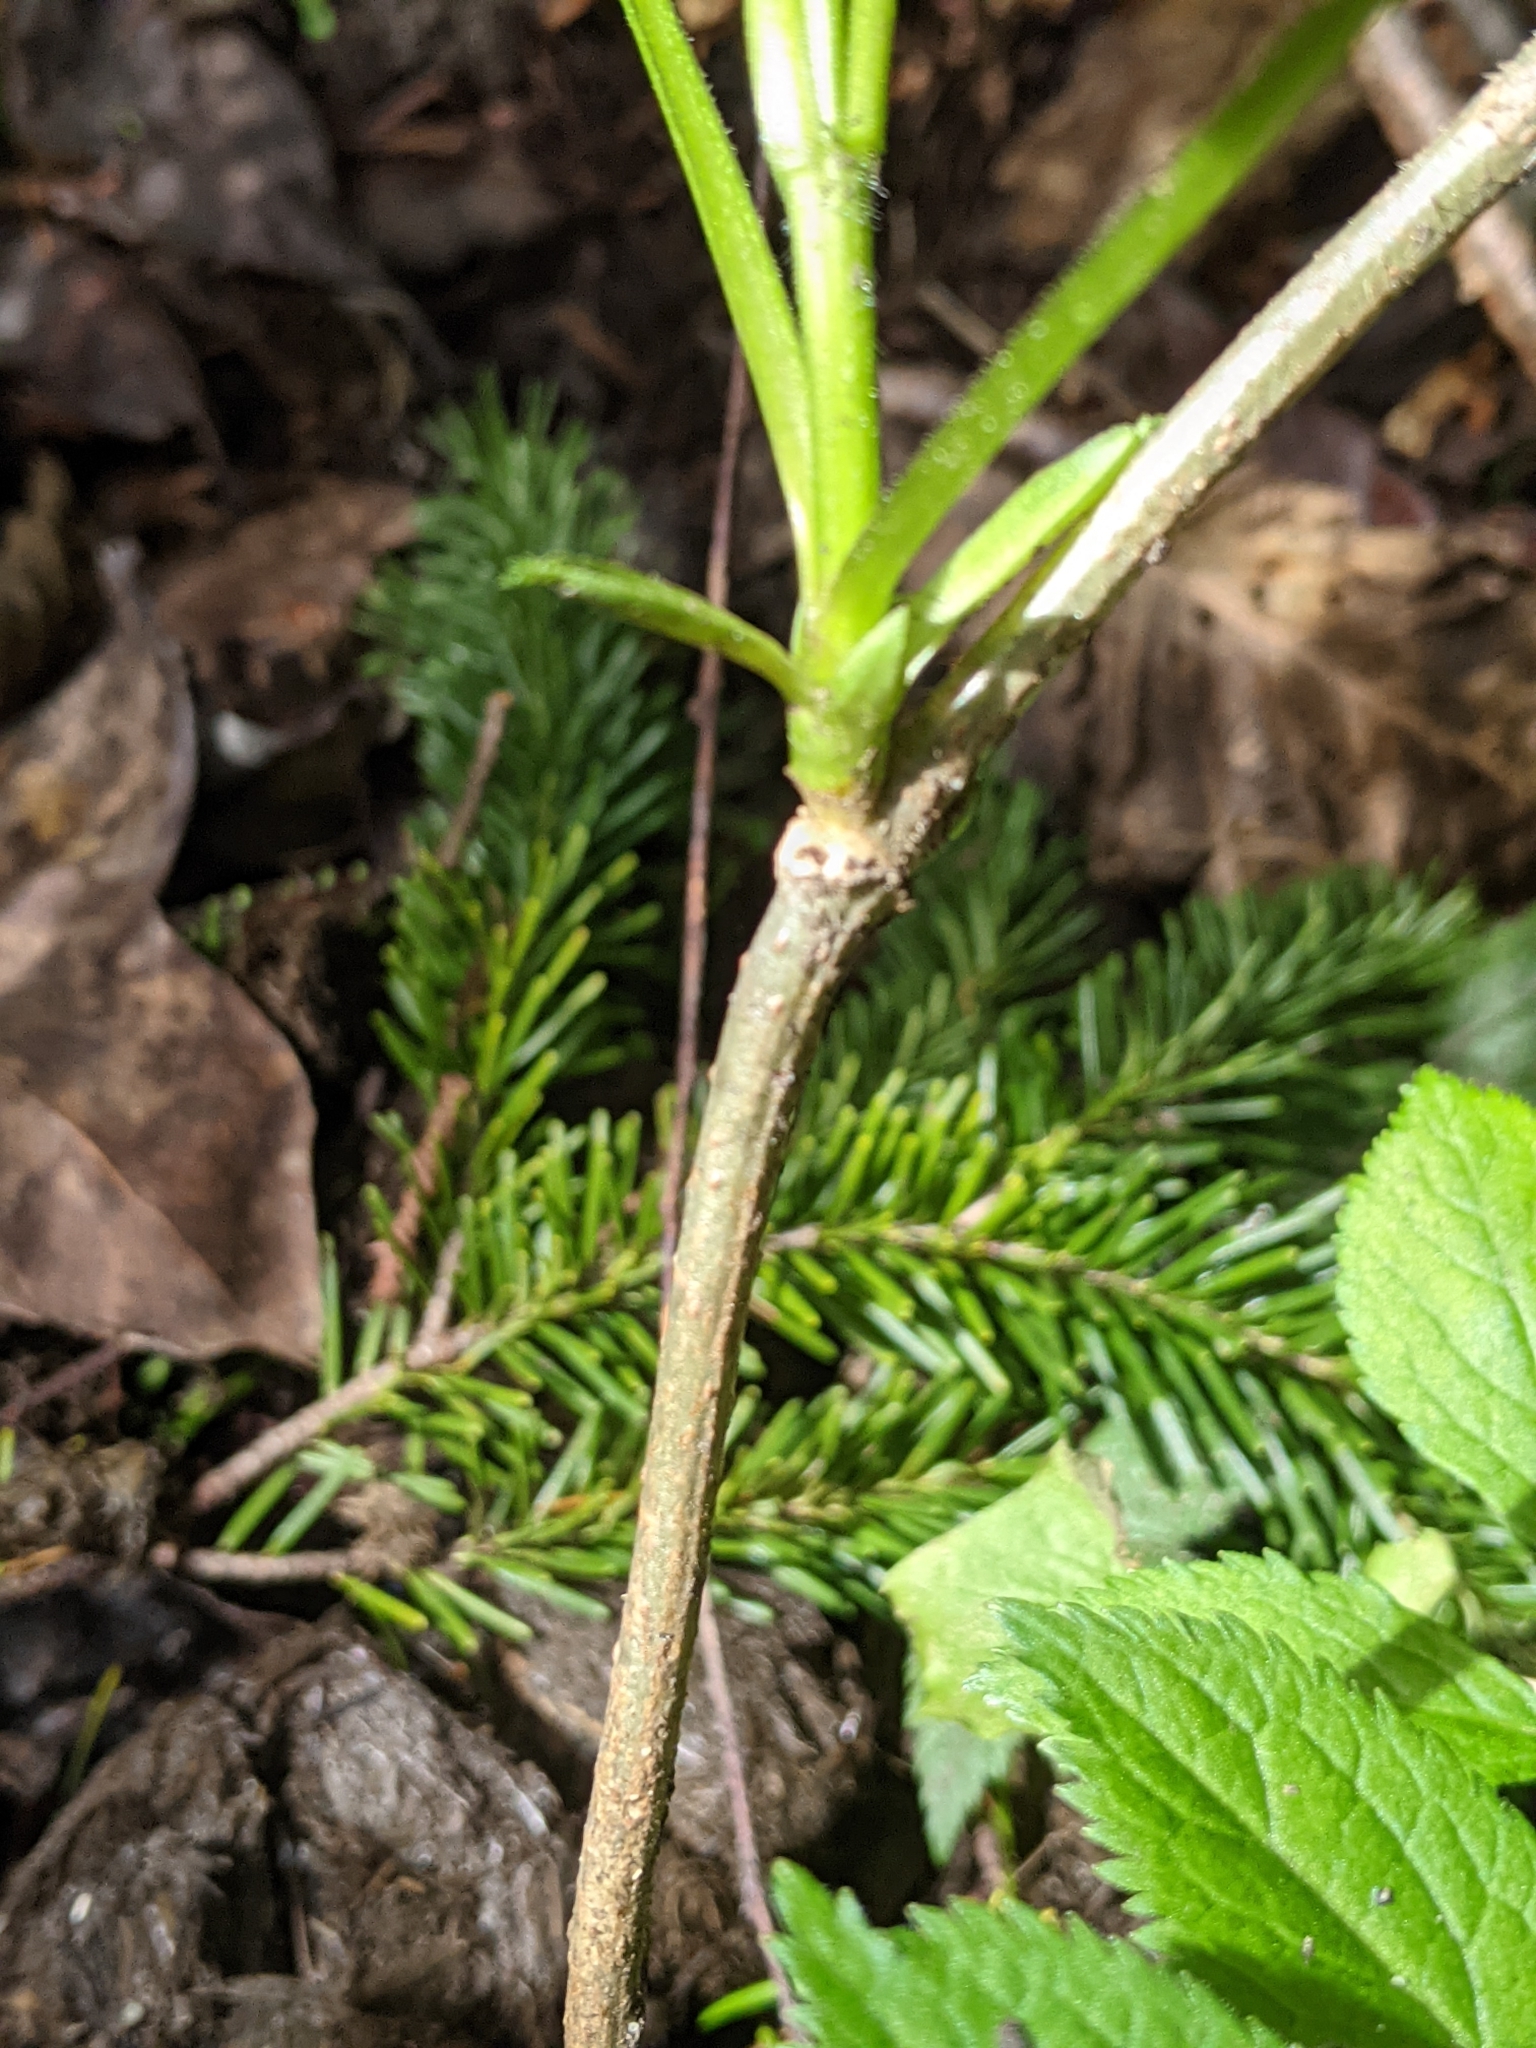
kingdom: Plantae
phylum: Tracheophyta
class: Magnoliopsida
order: Dipsacales
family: Viburnaceae
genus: Sambucus
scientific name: Sambucus racemosa
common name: Red-berried elder
